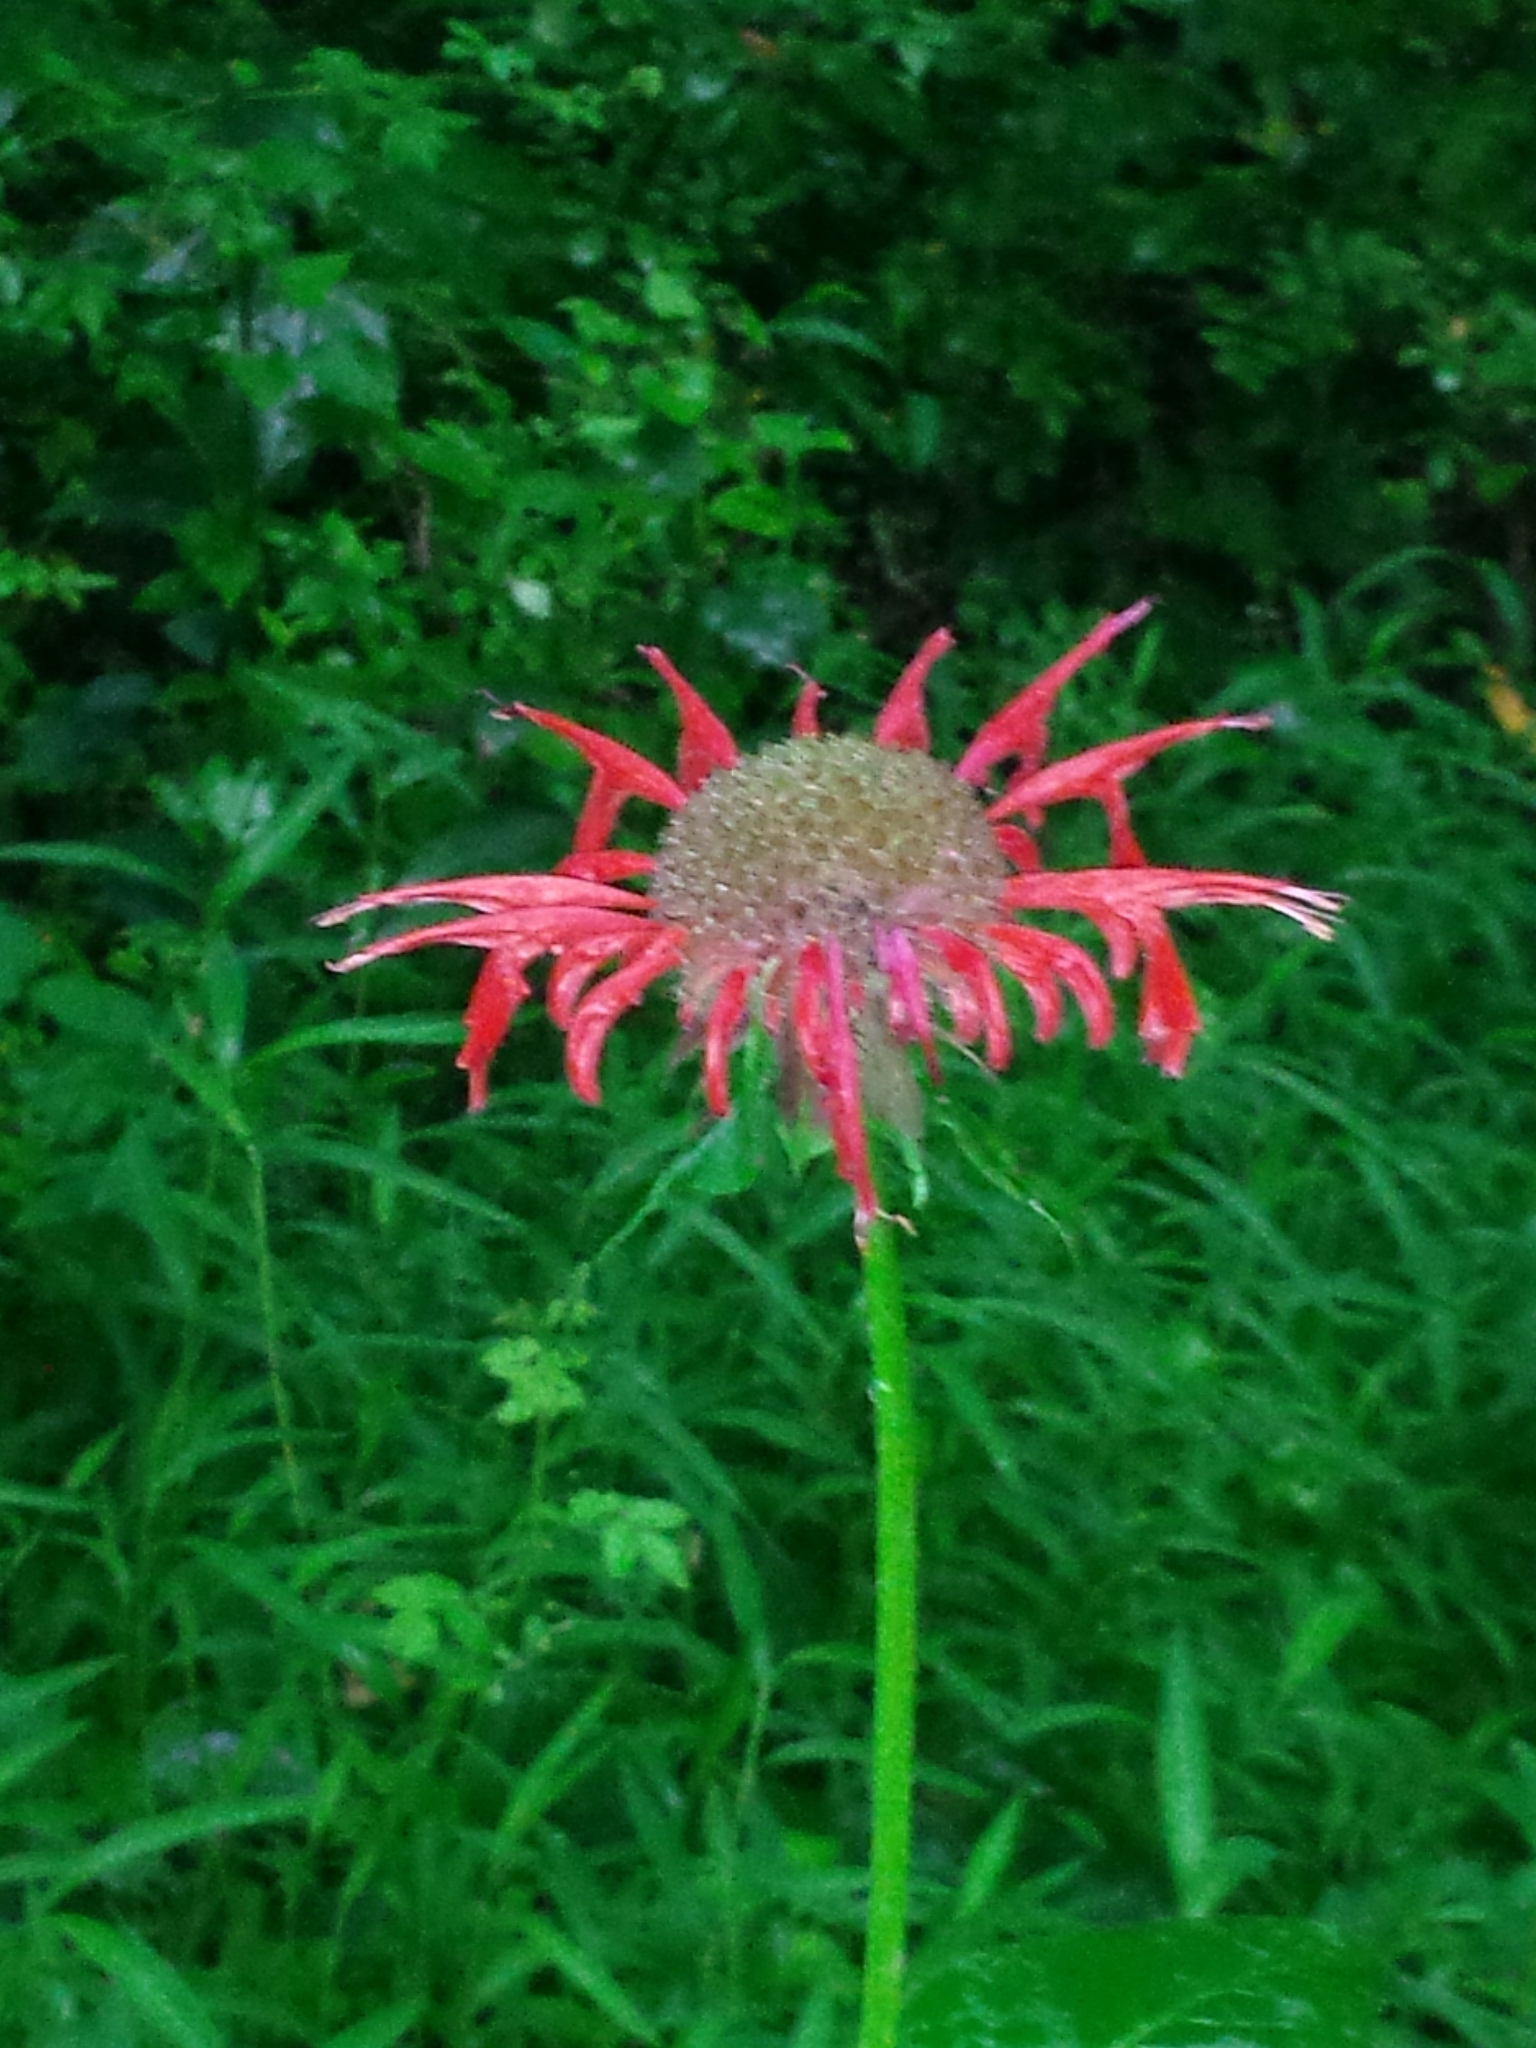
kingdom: Plantae
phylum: Tracheophyta
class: Magnoliopsida
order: Lamiales
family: Lamiaceae
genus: Monarda
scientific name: Monarda didyma
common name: Beebalm
